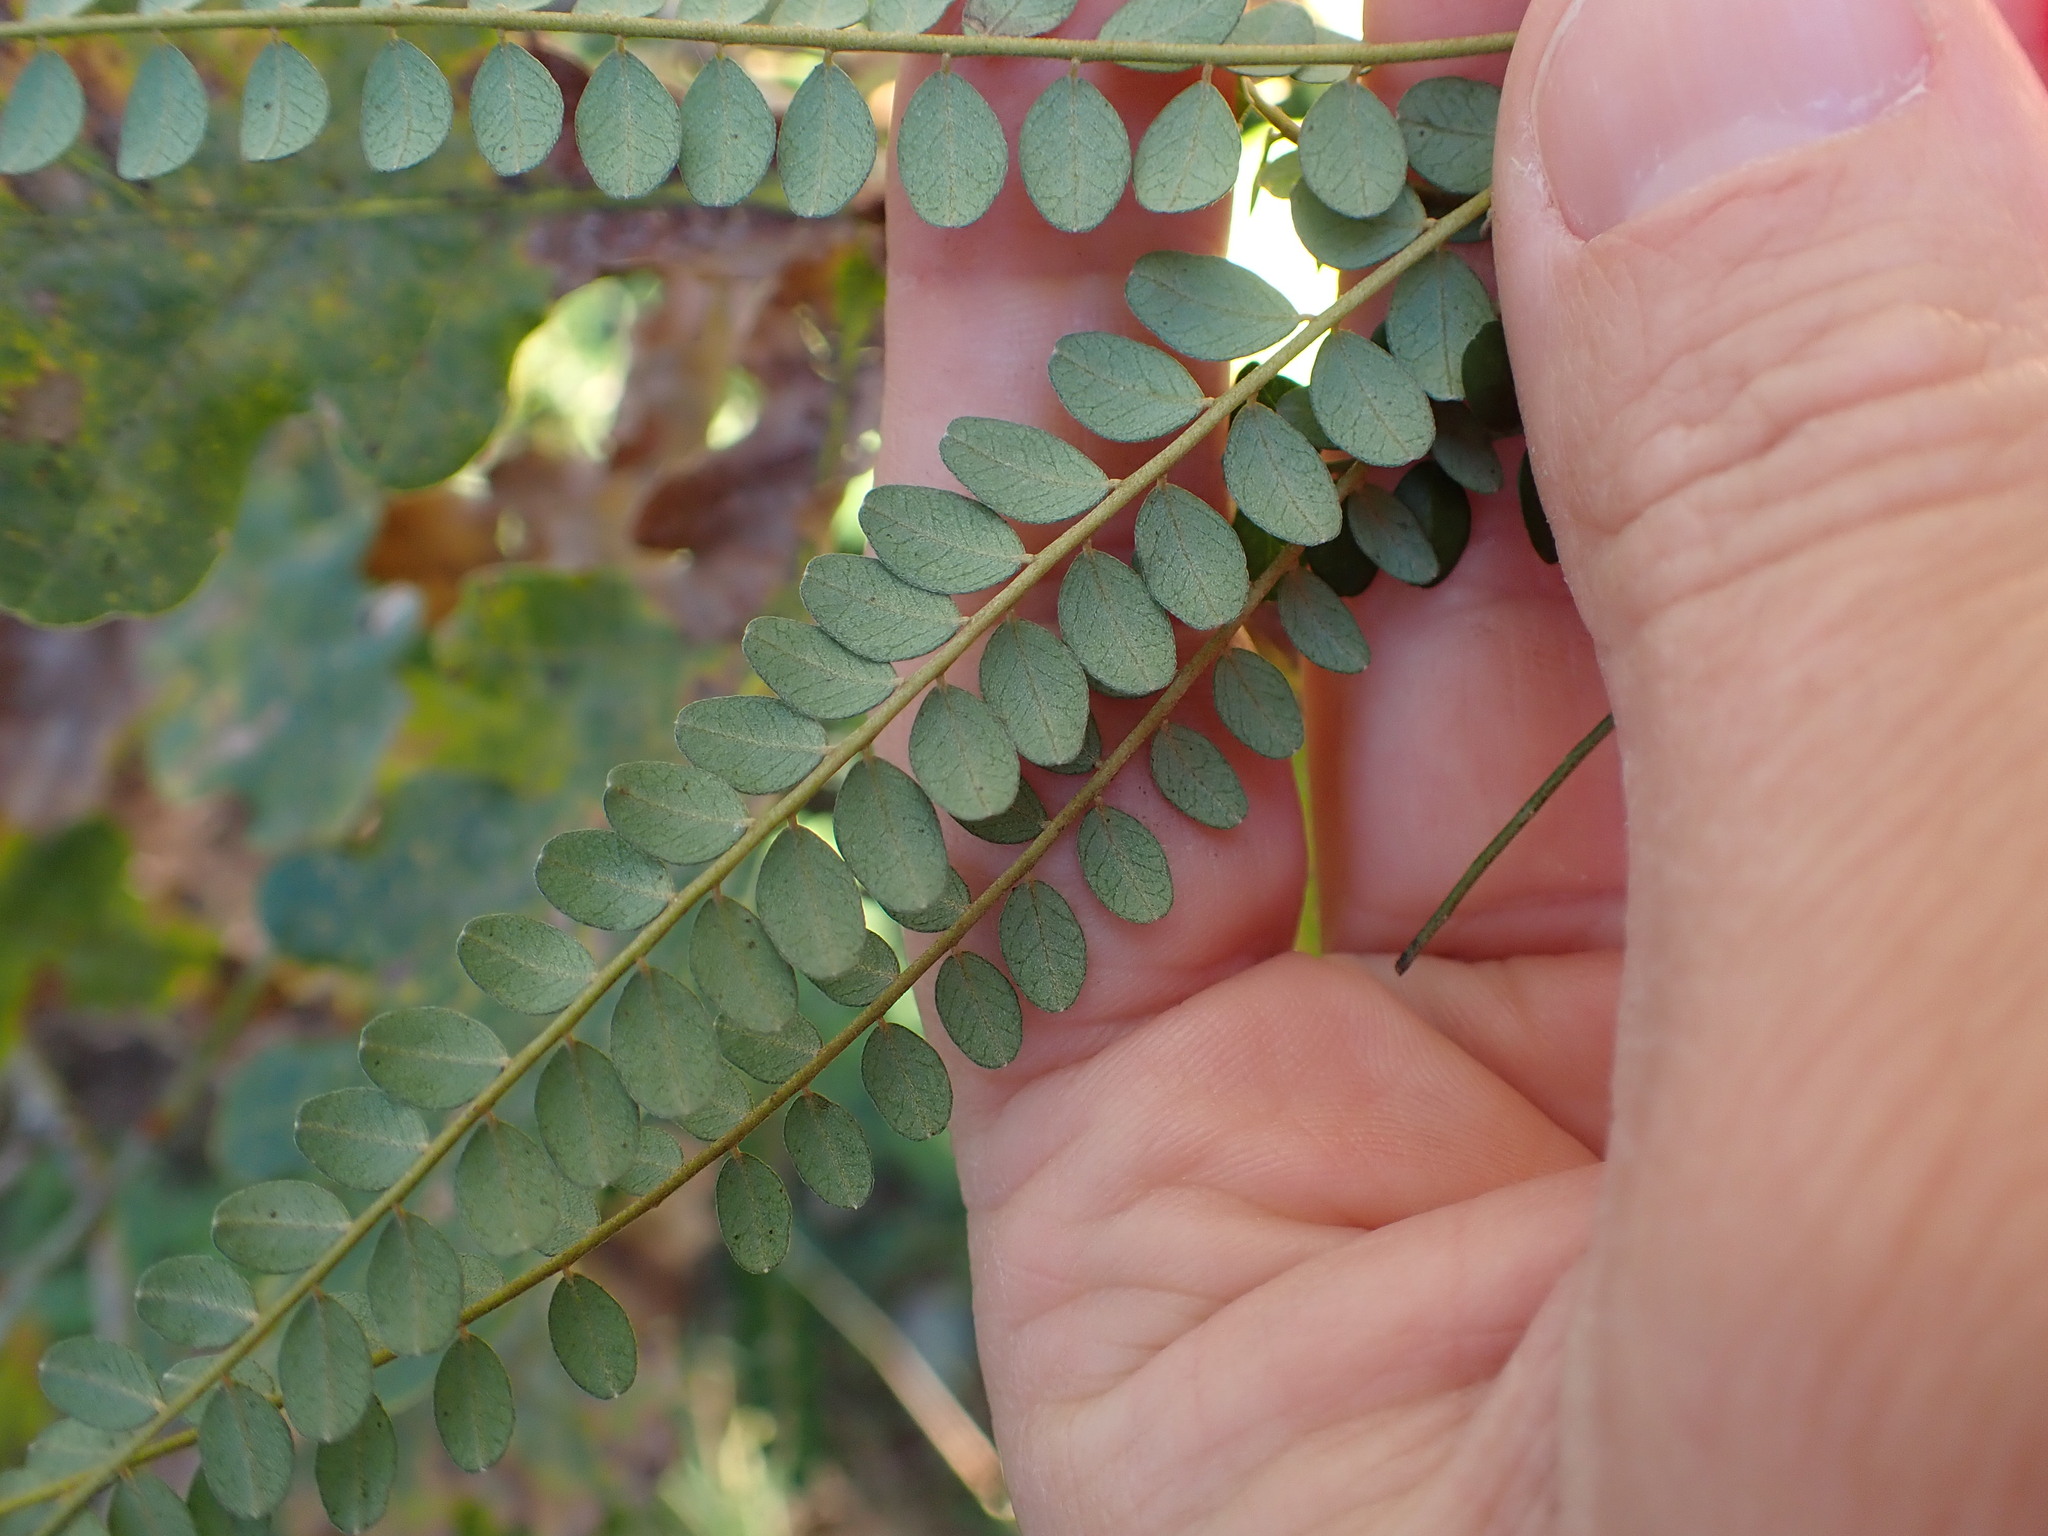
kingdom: Plantae
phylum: Tracheophyta
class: Magnoliopsida
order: Fabales
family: Fabaceae
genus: Sophora
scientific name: Sophora microphylla
